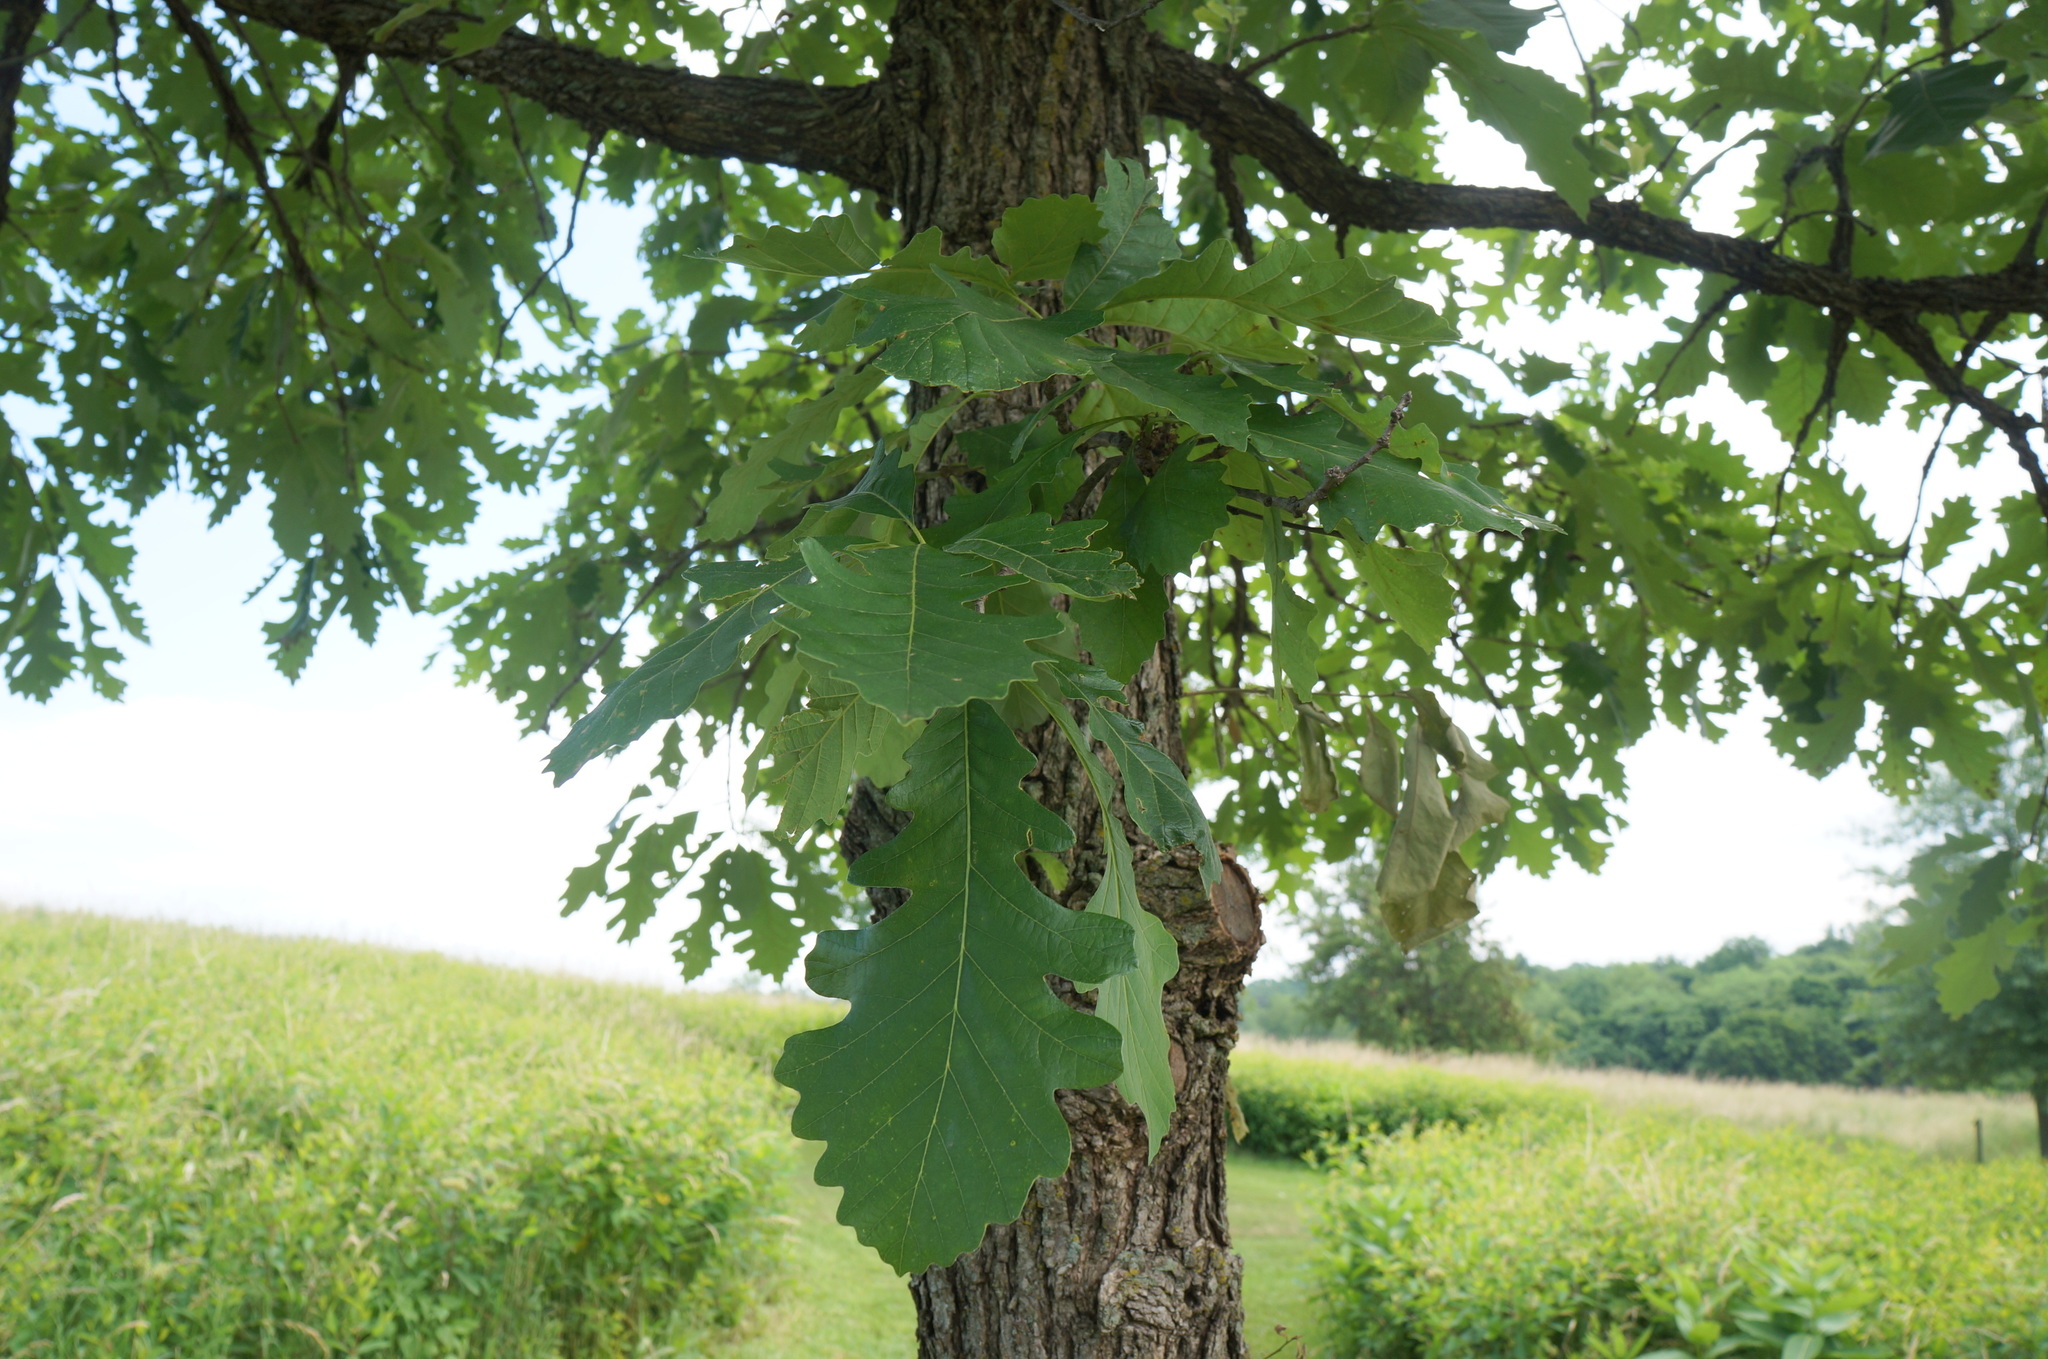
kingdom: Plantae
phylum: Tracheophyta
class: Magnoliopsida
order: Fagales
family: Fagaceae
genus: Quercus
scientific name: Quercus macrocarpa
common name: Bur oak
